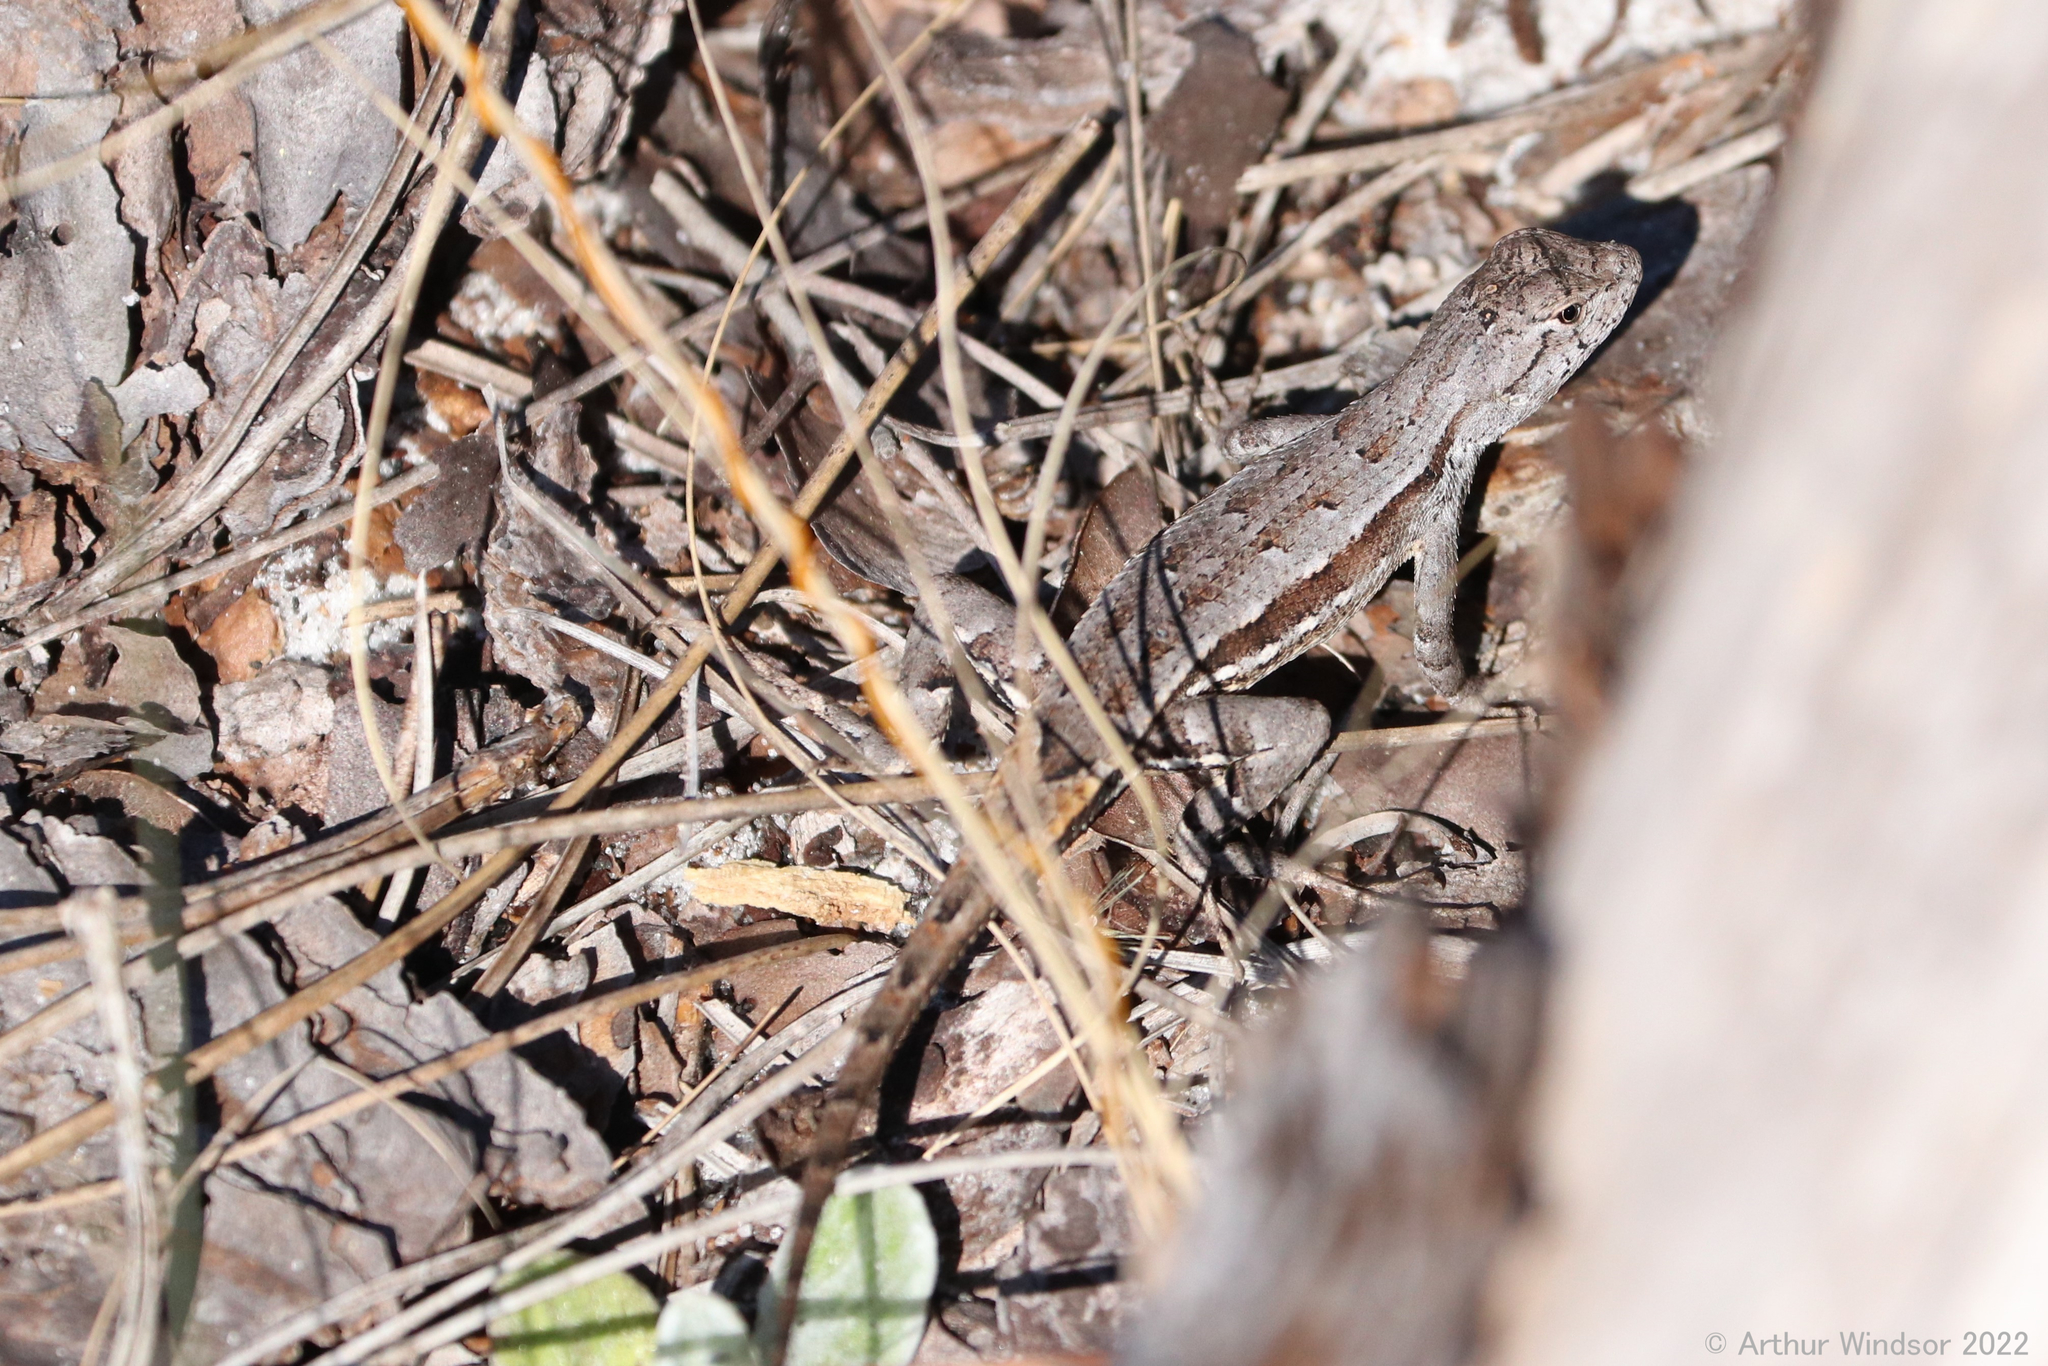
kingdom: Animalia
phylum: Chordata
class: Squamata
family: Phrynosomatidae
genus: Sceloporus
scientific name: Sceloporus woodi
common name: Florida scrub lizard
